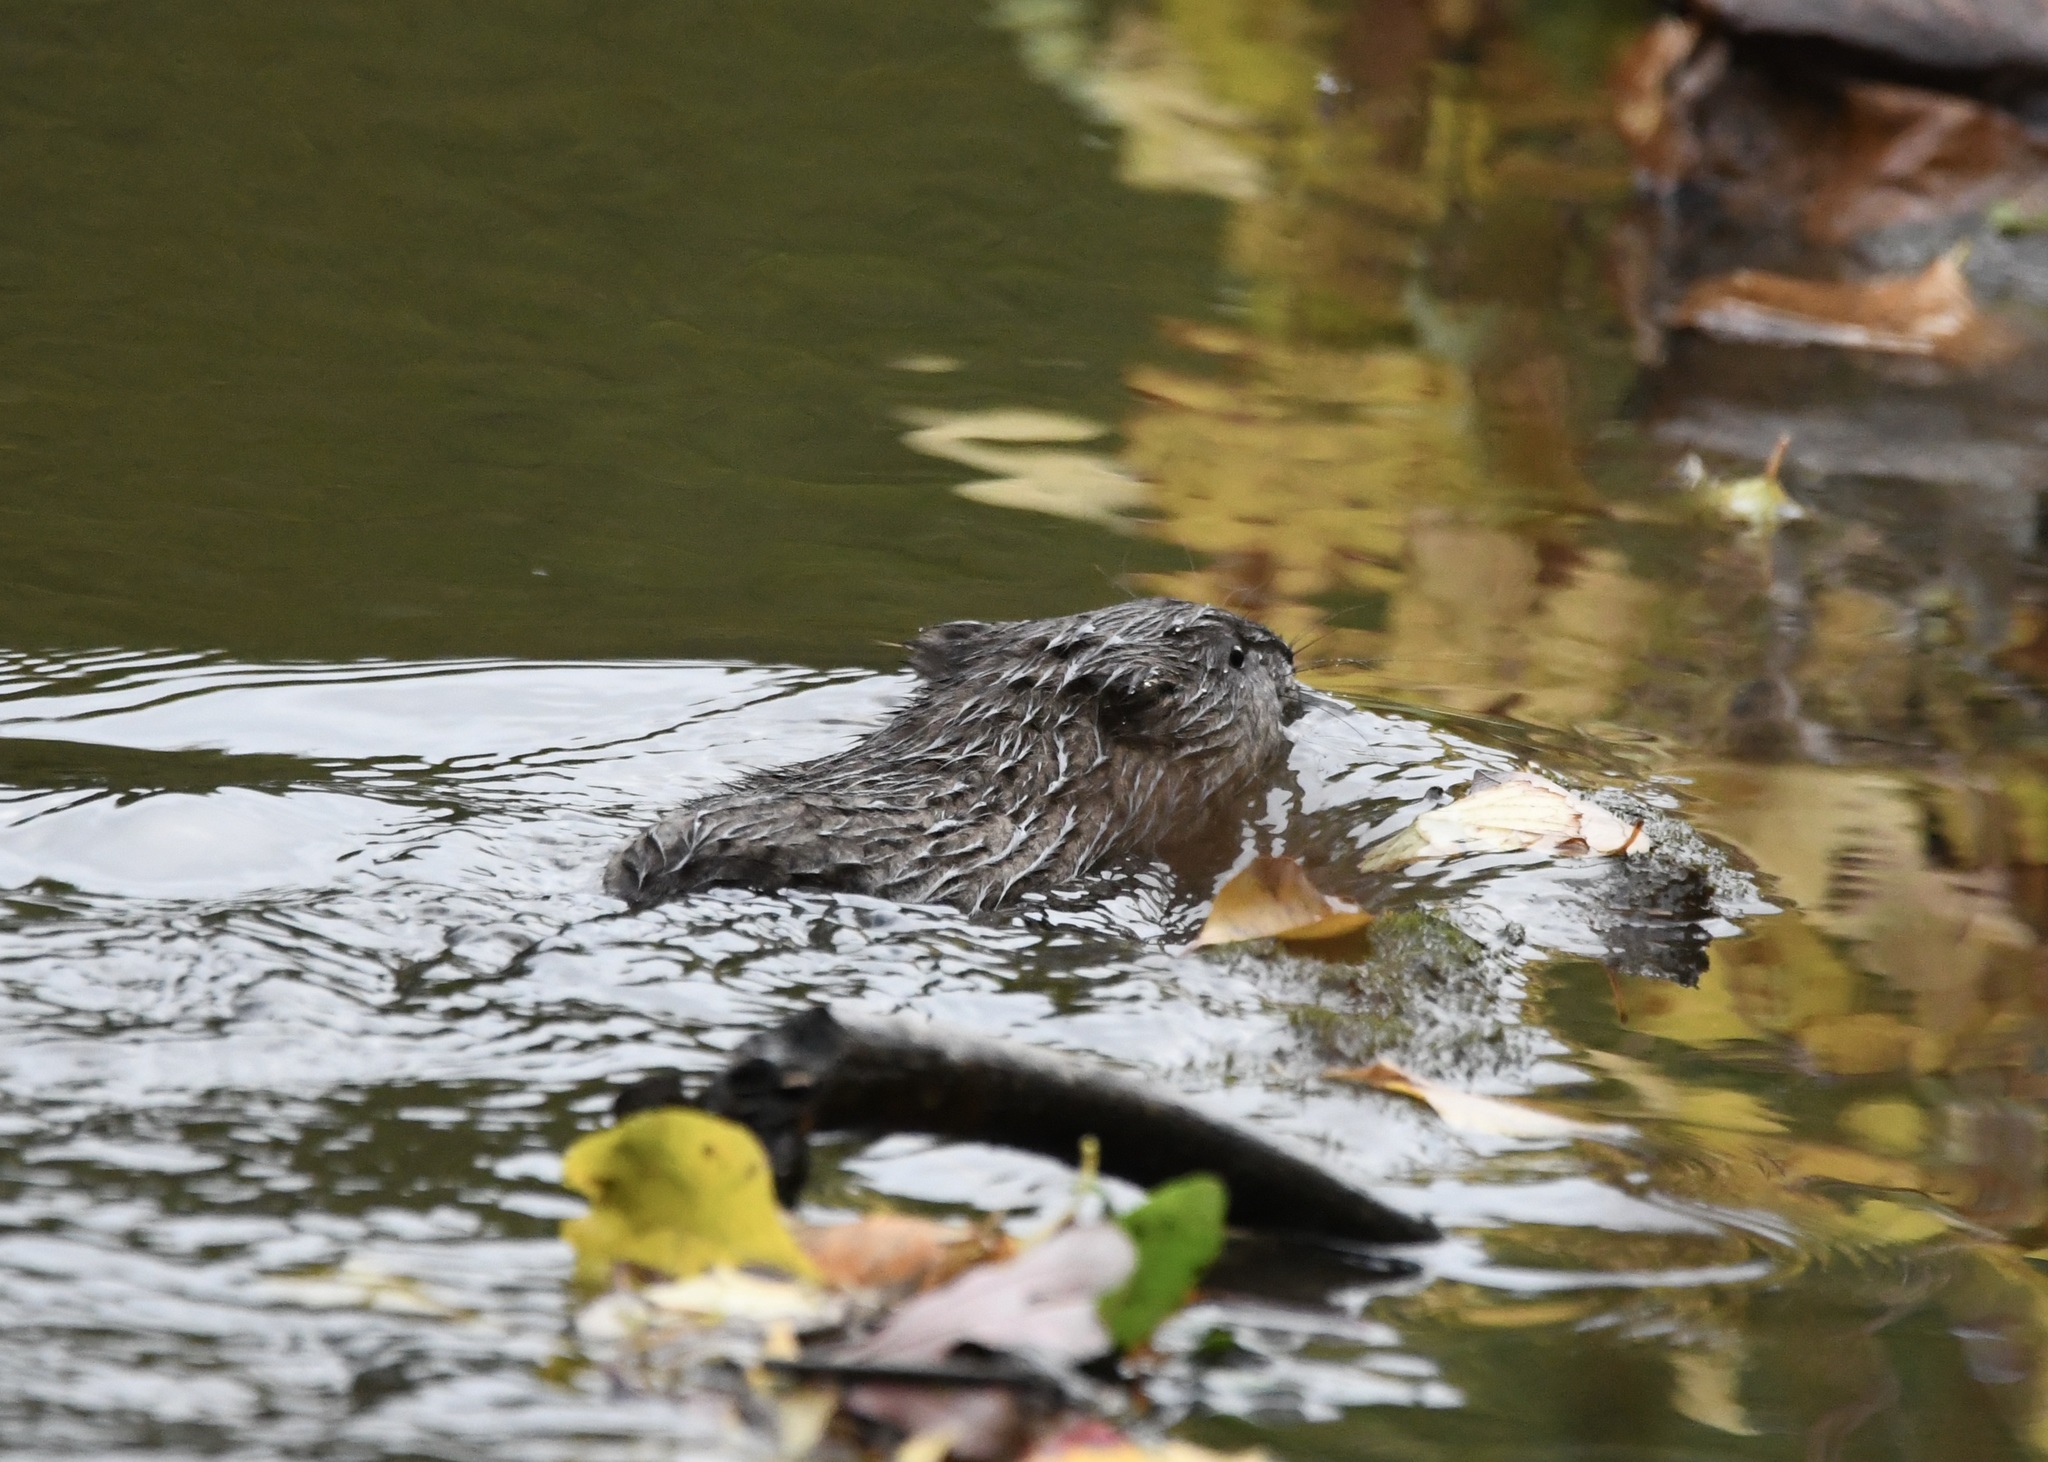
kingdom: Animalia
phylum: Chordata
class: Mammalia
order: Rodentia
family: Cricetidae
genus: Ondatra
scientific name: Ondatra zibethicus
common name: Muskrat
